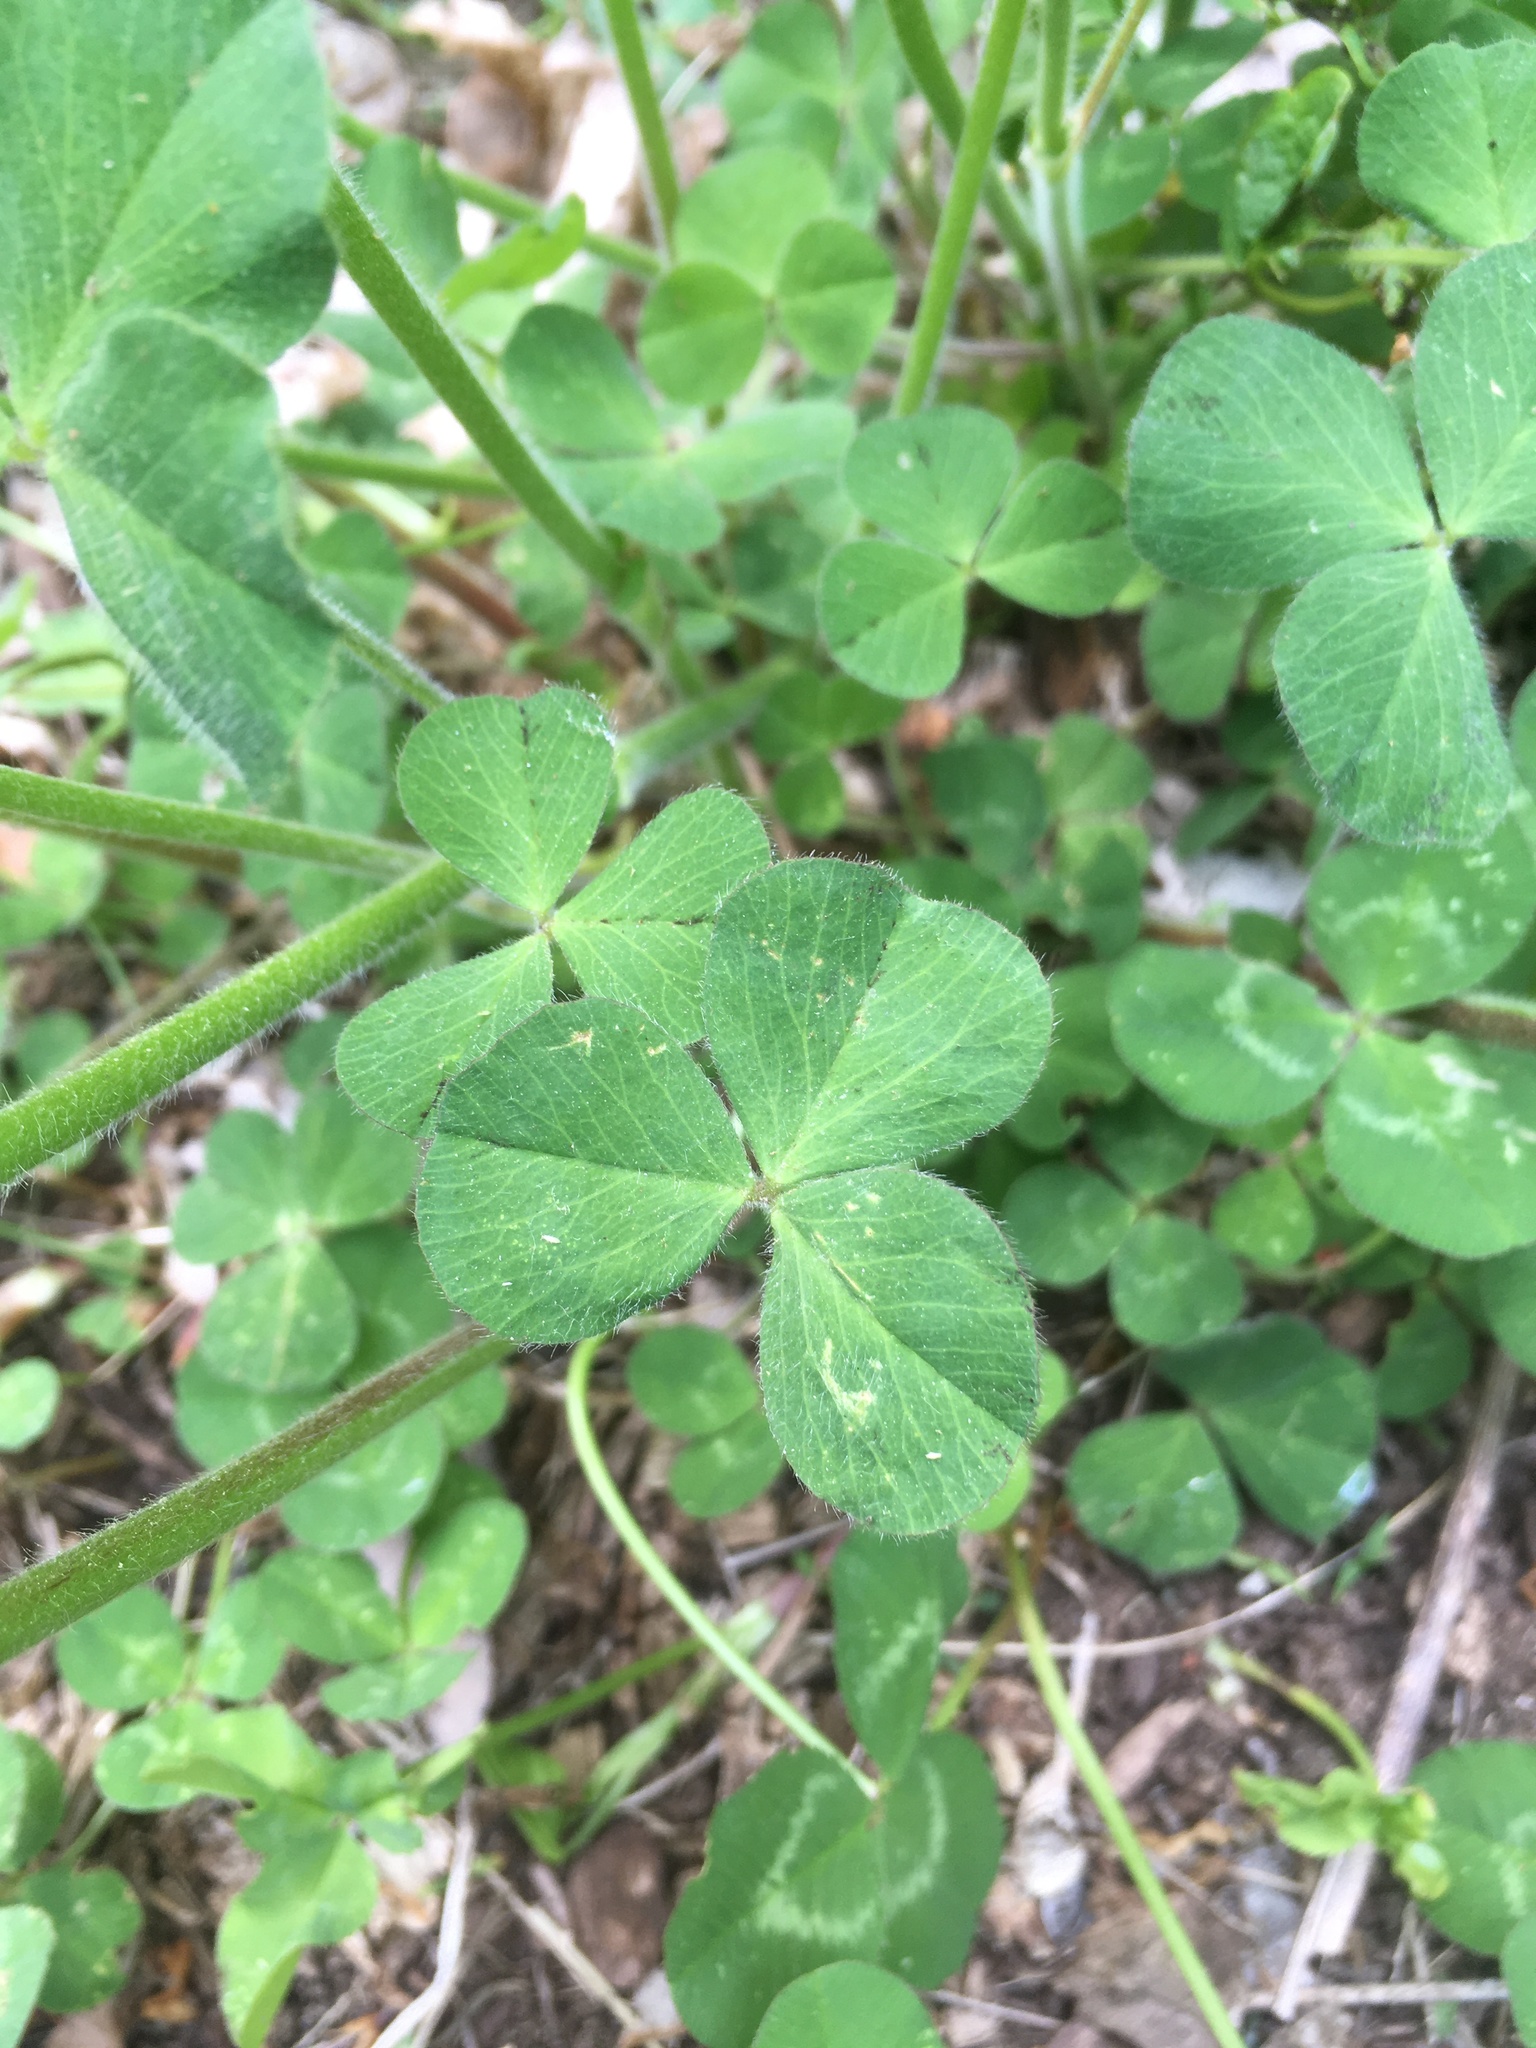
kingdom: Plantae
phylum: Tracheophyta
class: Magnoliopsida
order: Fabales
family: Fabaceae
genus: Trifolium
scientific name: Trifolium incarnatum
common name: Crimson clover
